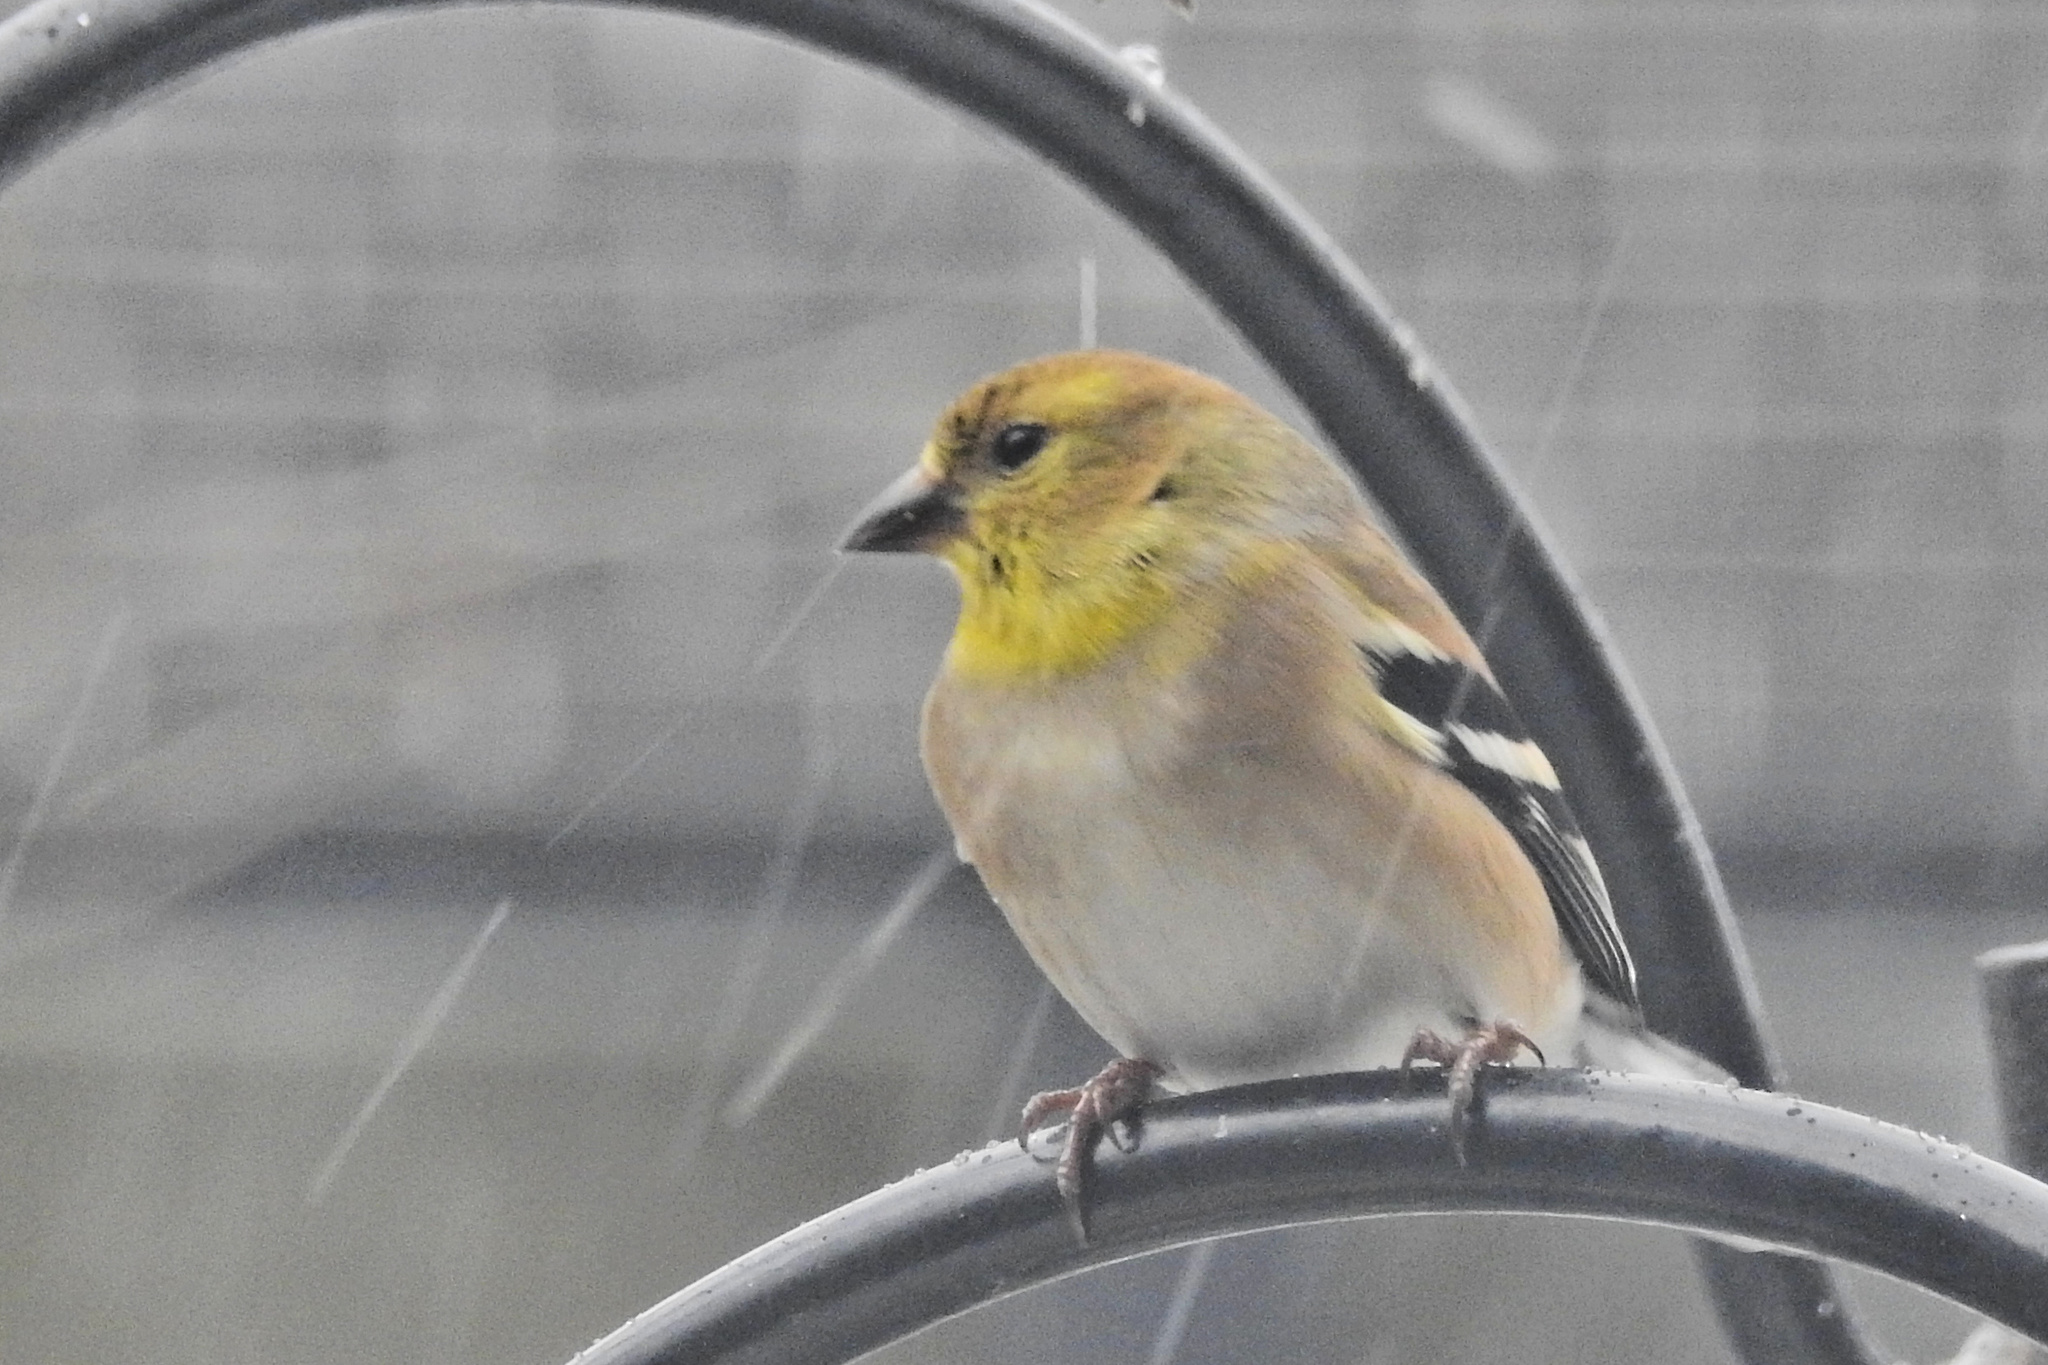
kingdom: Animalia
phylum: Chordata
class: Aves
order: Passeriformes
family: Fringillidae
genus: Spinus
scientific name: Spinus tristis
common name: American goldfinch
